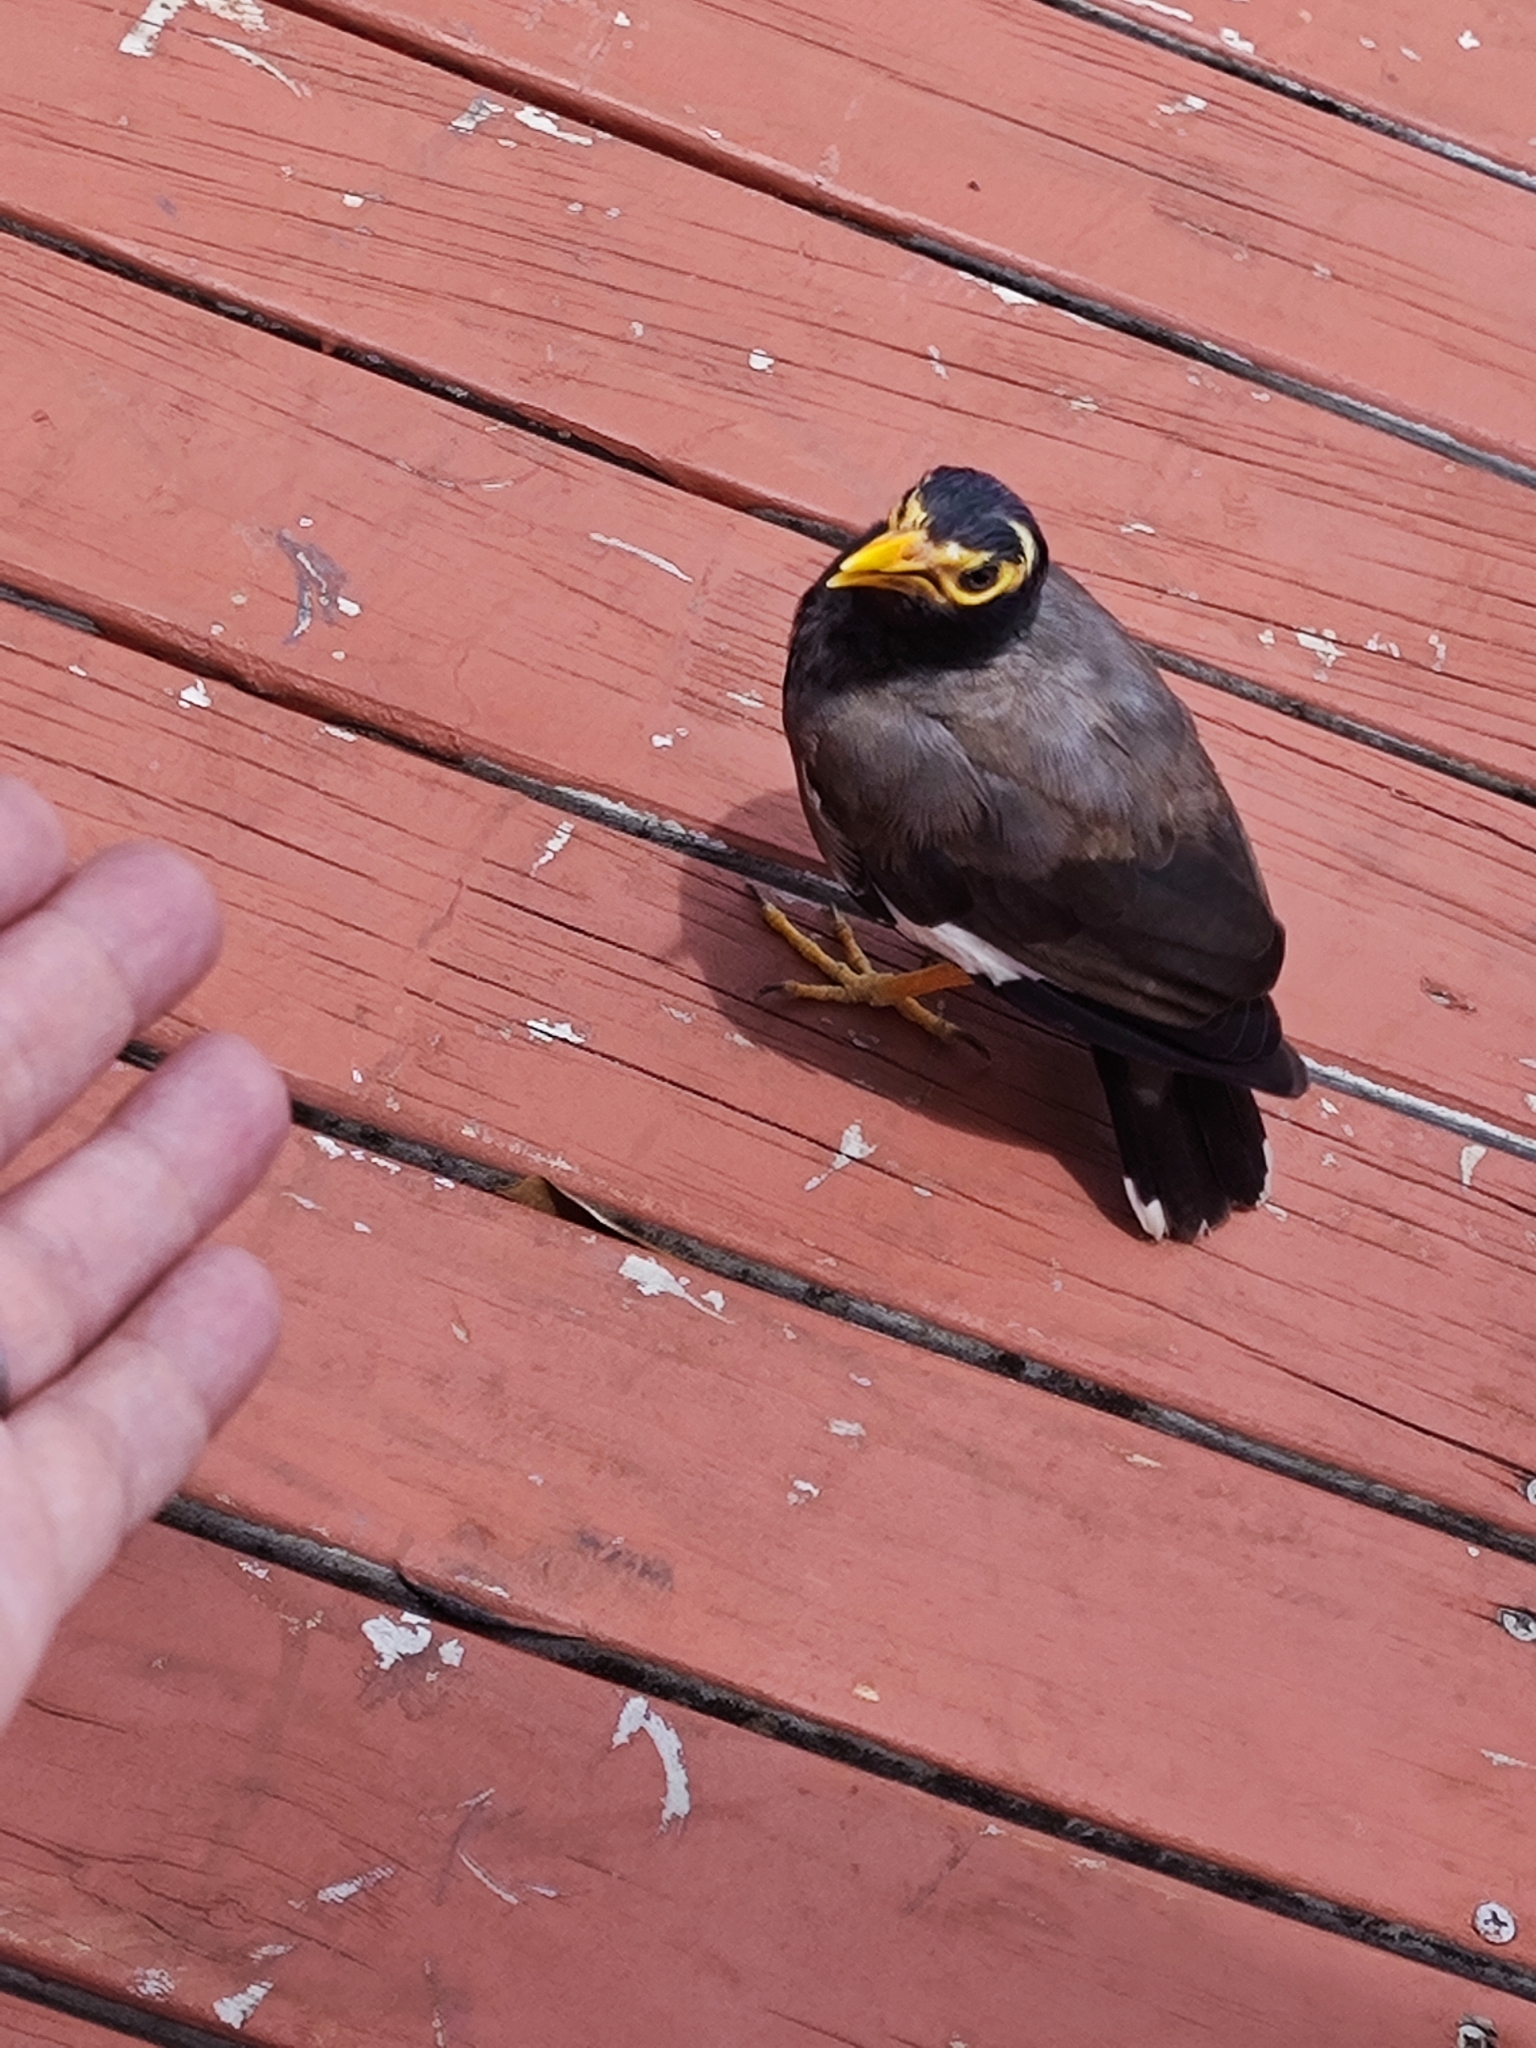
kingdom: Animalia
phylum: Chordata
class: Aves
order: Passeriformes
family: Sturnidae
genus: Acridotheres
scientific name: Acridotheres tristis
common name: Common myna
